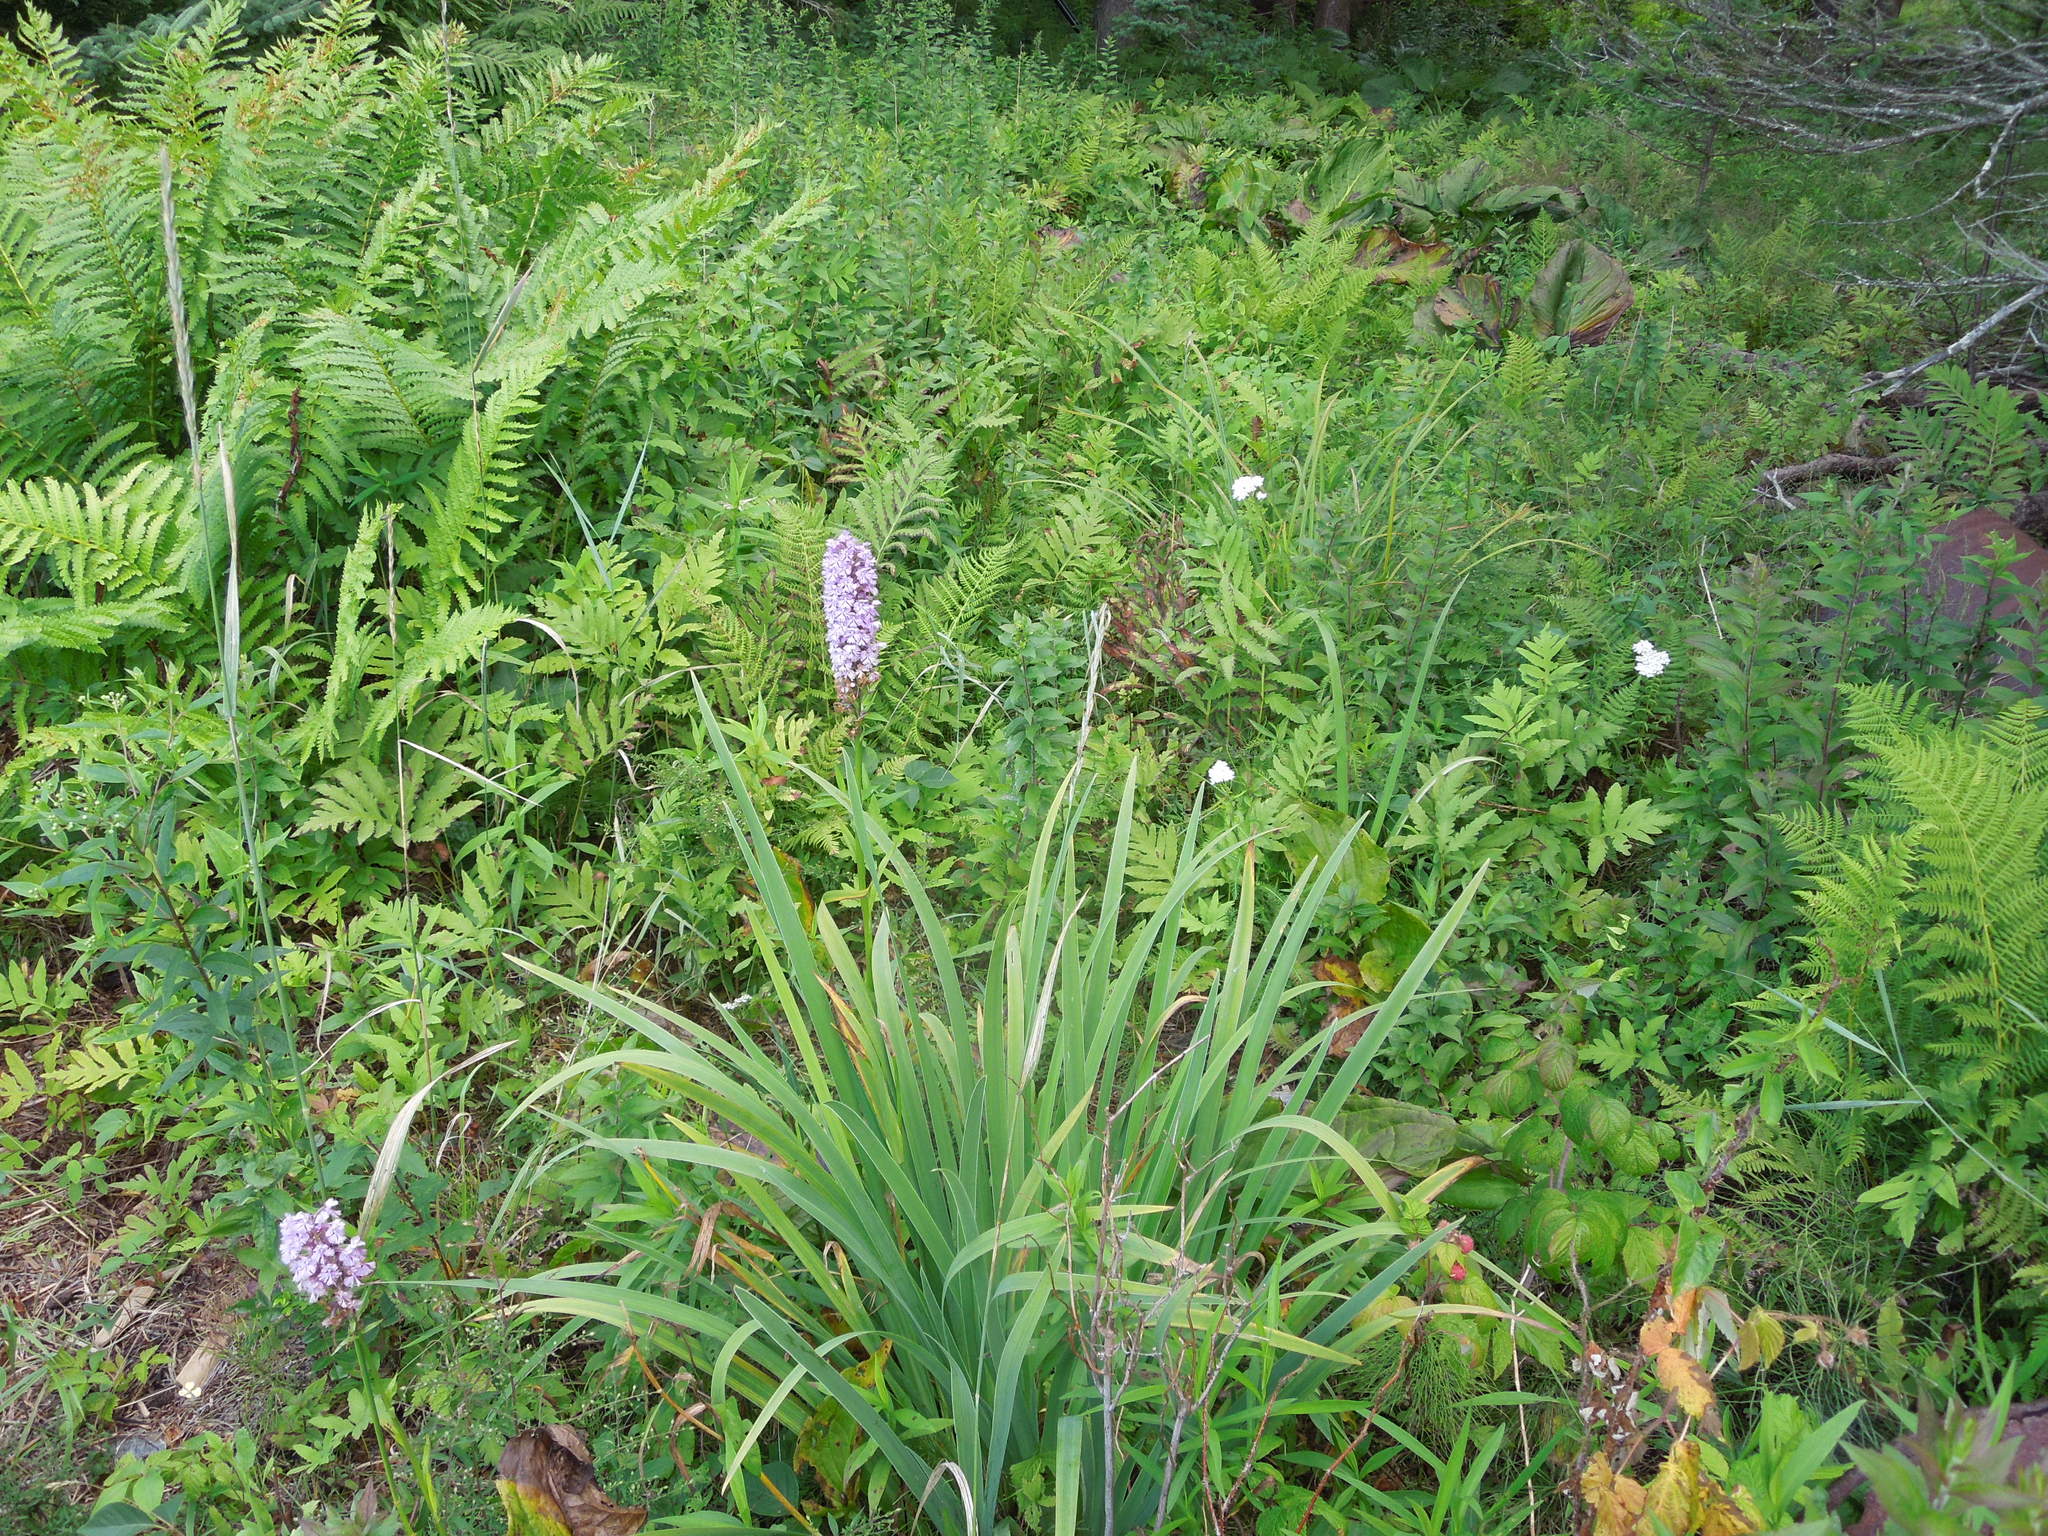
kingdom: Plantae
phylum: Tracheophyta
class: Liliopsida
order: Asparagales
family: Orchidaceae
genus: Platanthera
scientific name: Platanthera psycodes
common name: Lesser purple fringed orchid
